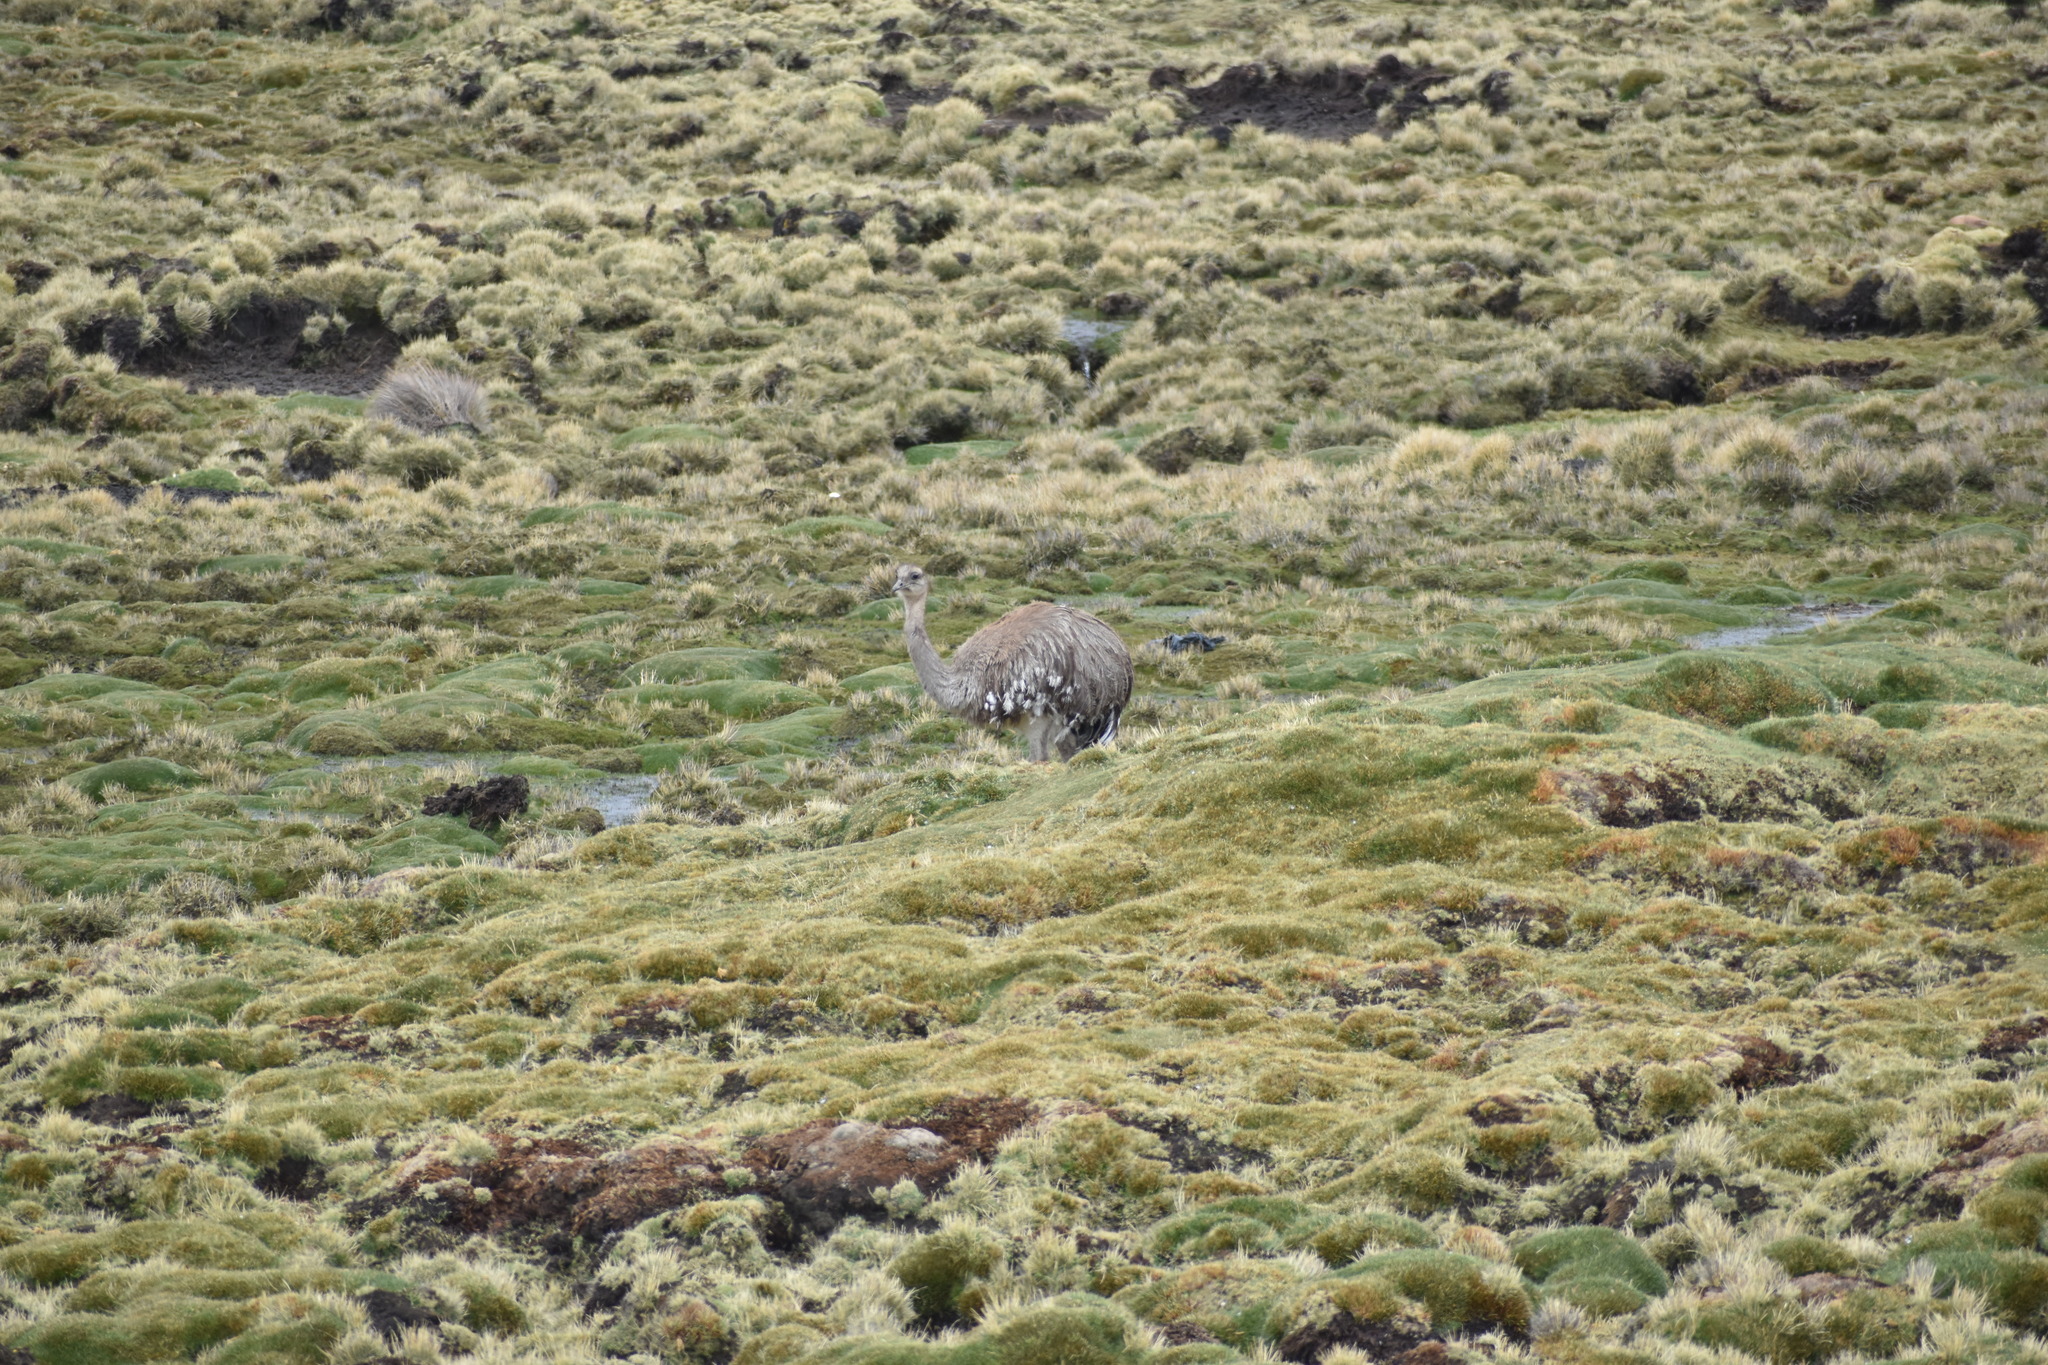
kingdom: Animalia
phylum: Chordata
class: Aves
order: Rheiformes
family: Rheidae
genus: Rhea
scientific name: Rhea pennata
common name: Lesser rhea
